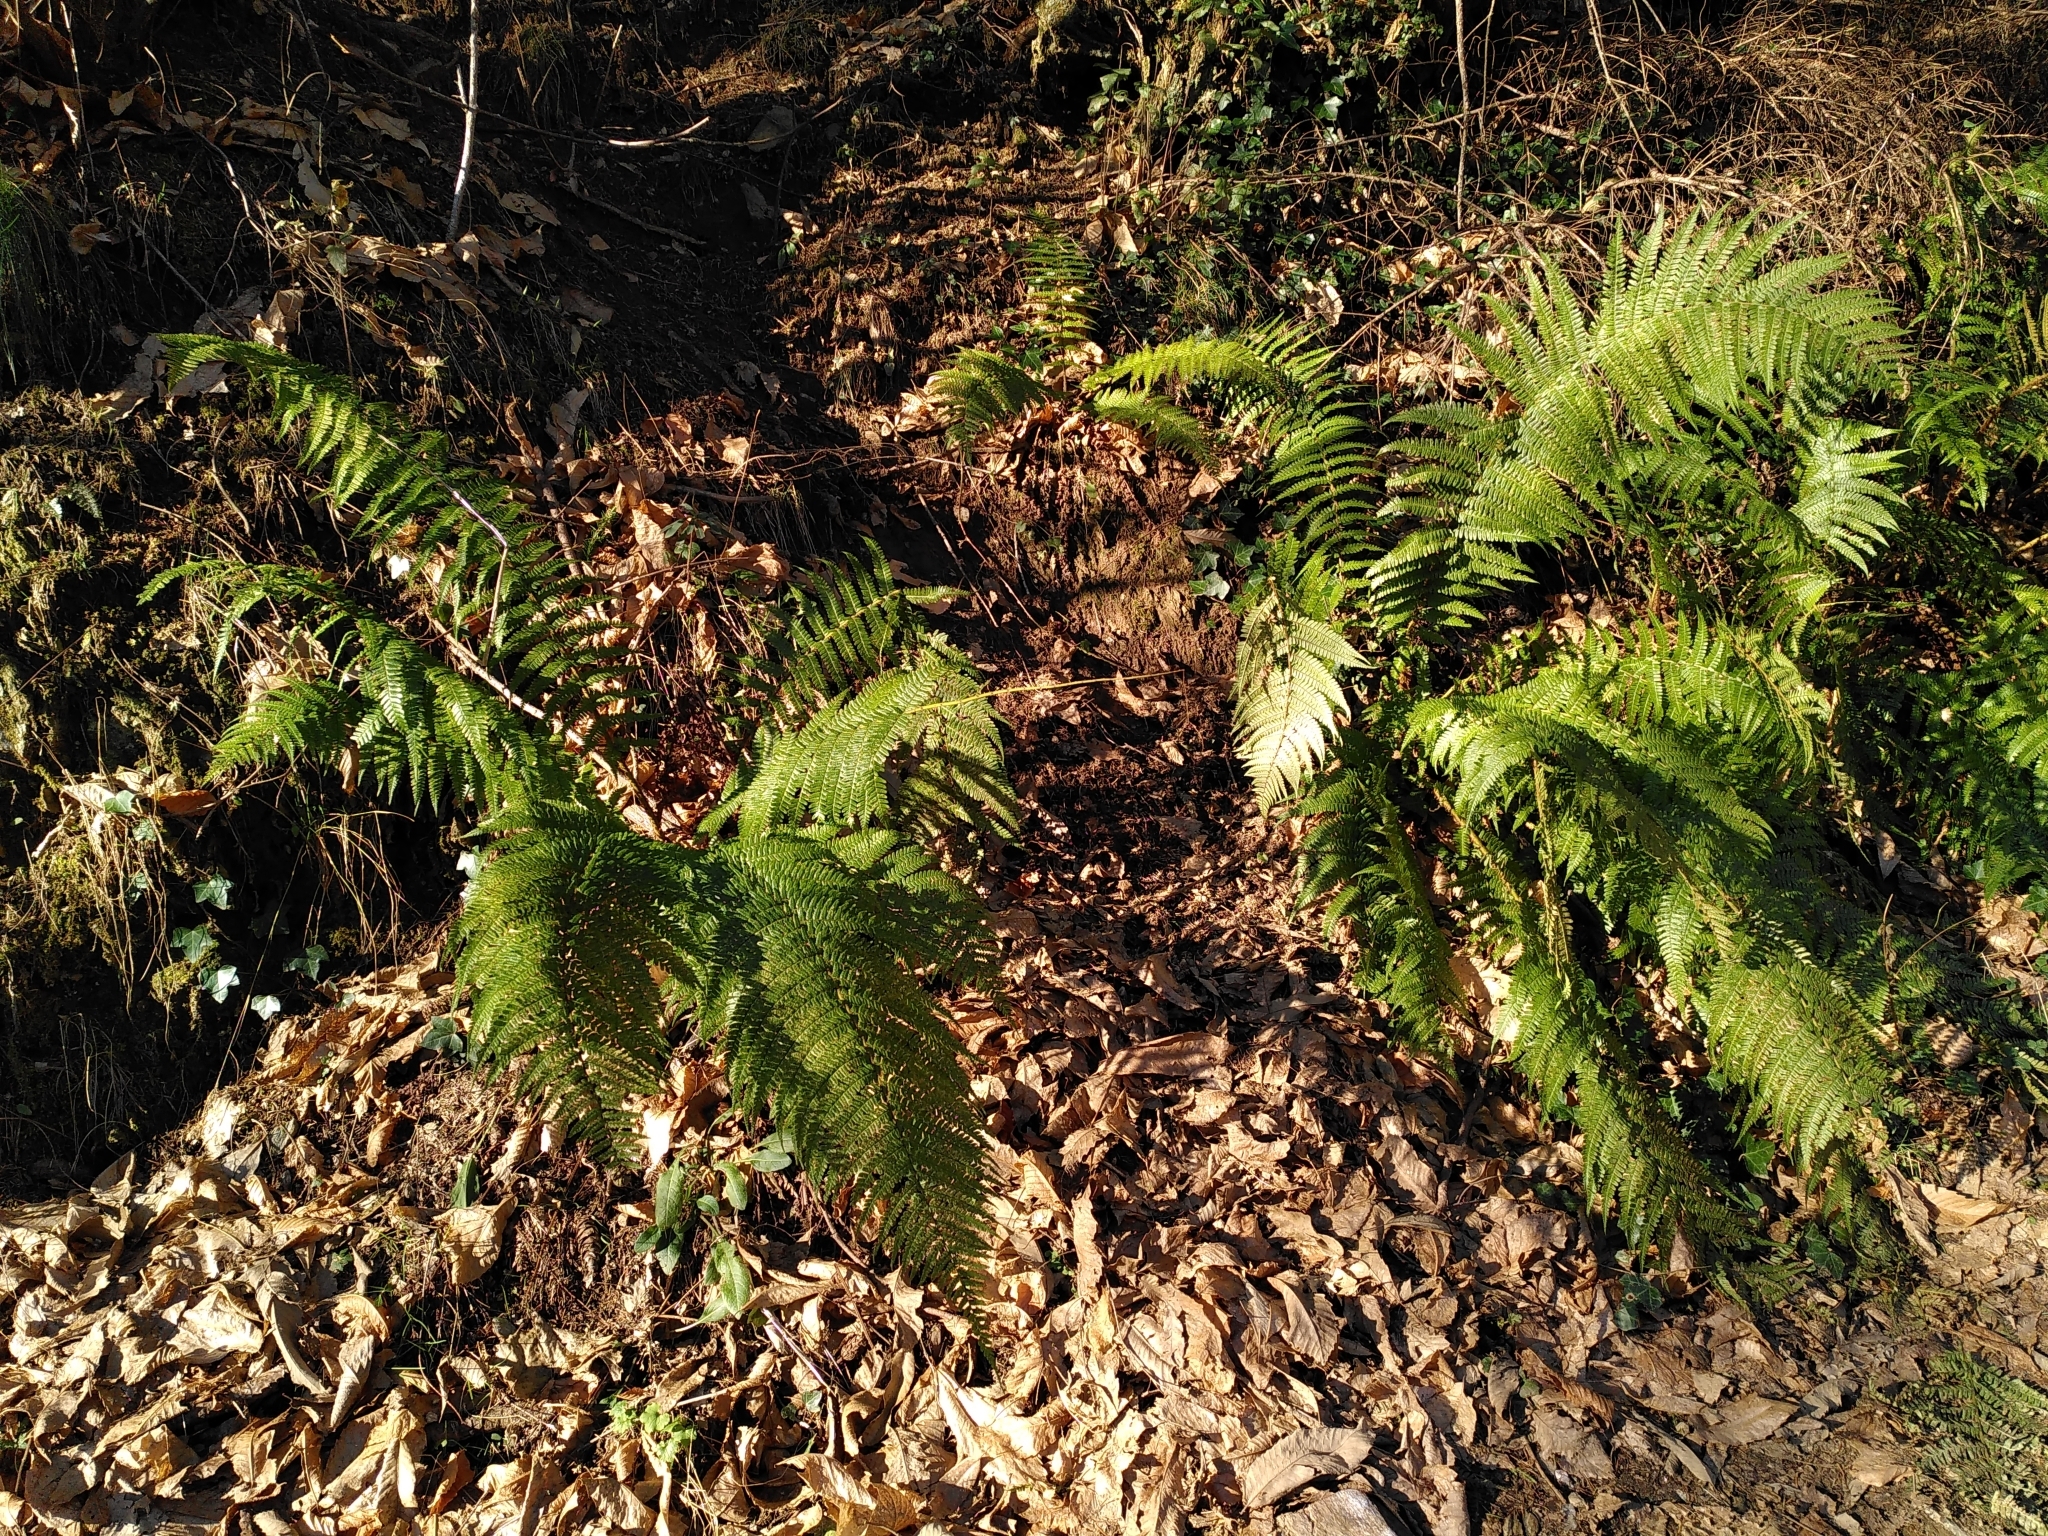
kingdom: Plantae
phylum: Tracheophyta
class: Polypodiopsida
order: Polypodiales
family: Dryopteridaceae
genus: Dryopteris
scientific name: Dryopteris filix-mas
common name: Male fern
